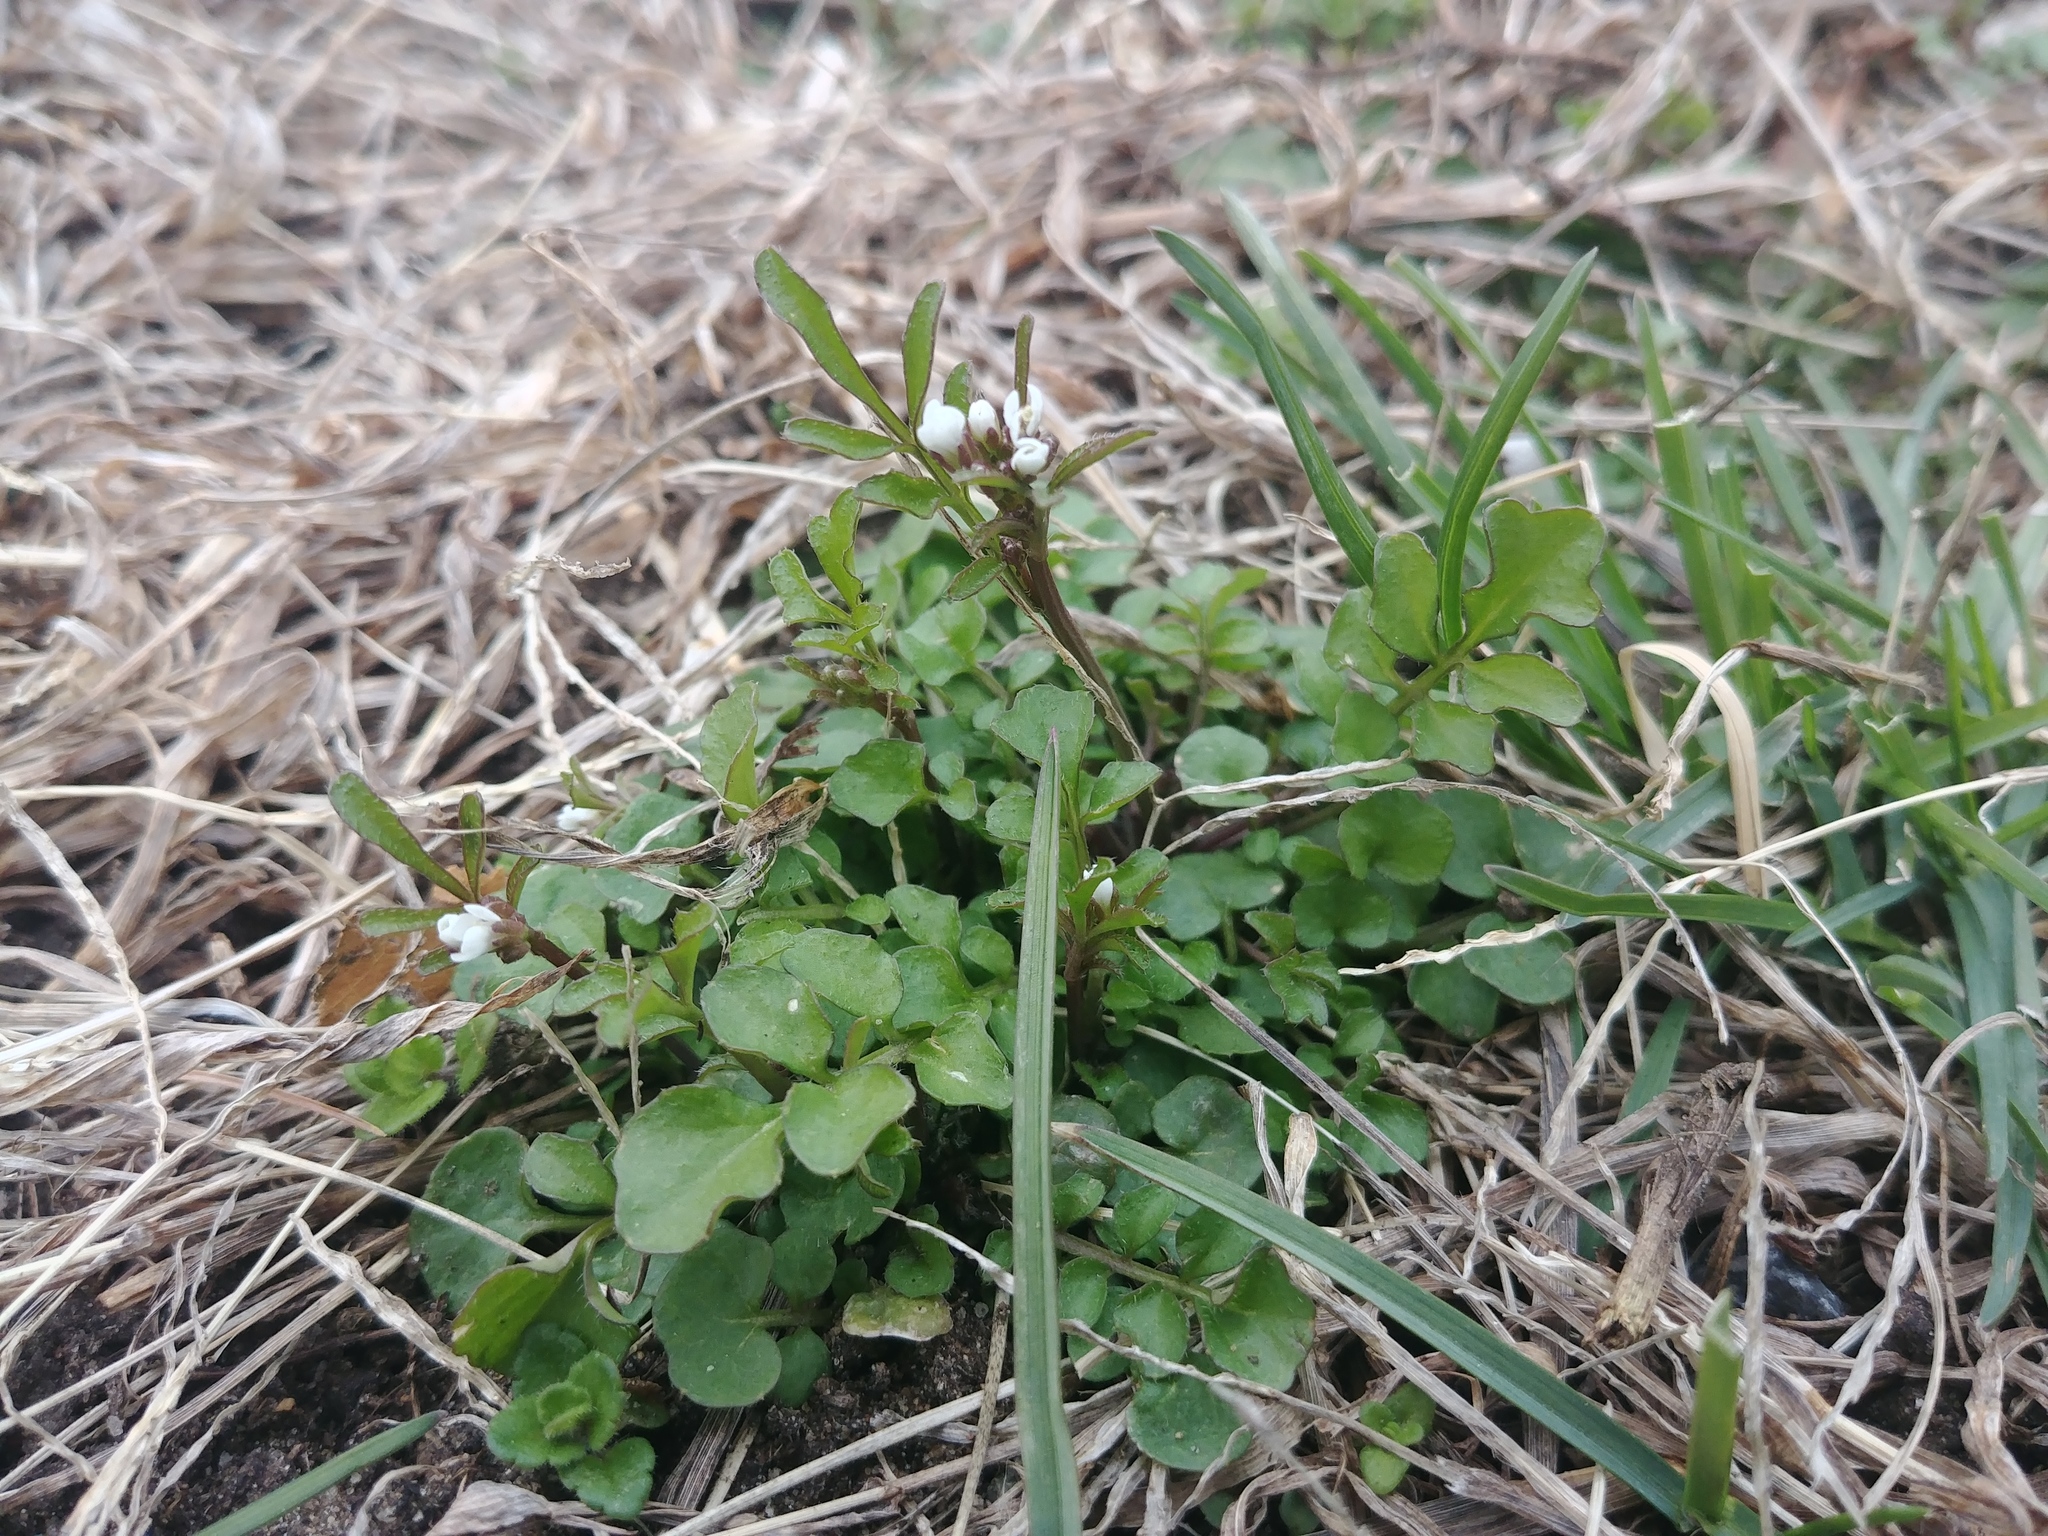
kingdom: Plantae
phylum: Tracheophyta
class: Magnoliopsida
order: Brassicales
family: Brassicaceae
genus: Cardamine
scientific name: Cardamine hirsuta
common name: Hairy bittercress
